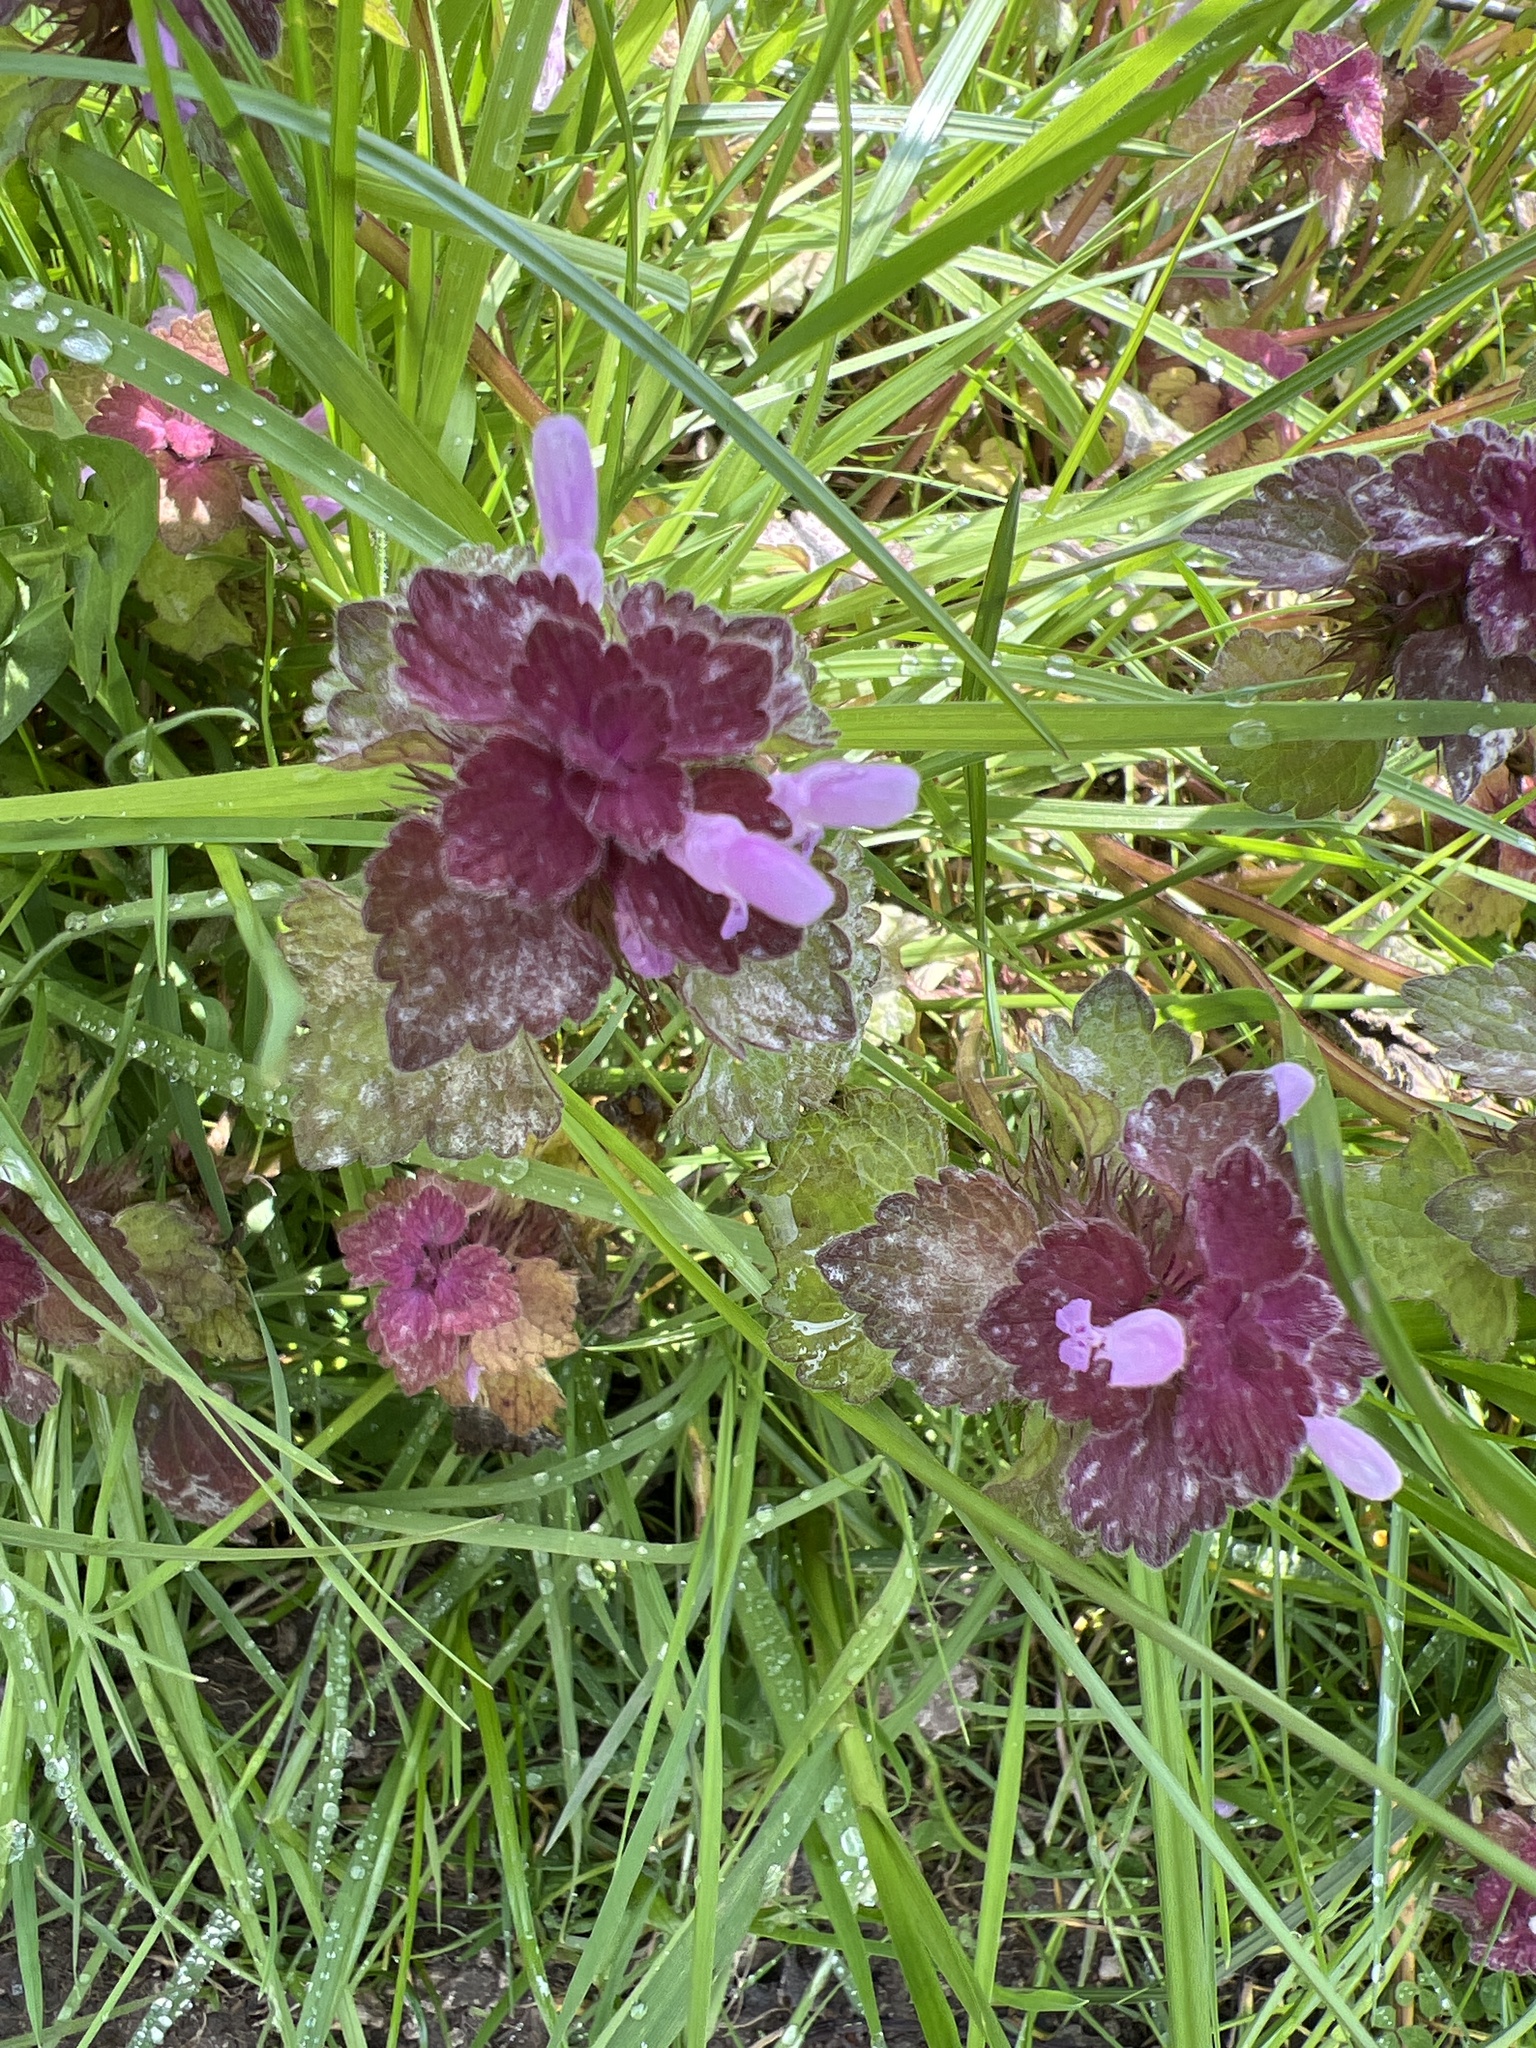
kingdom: Plantae
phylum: Tracheophyta
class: Magnoliopsida
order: Lamiales
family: Lamiaceae
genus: Lamium
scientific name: Lamium purpureum
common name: Red dead-nettle
